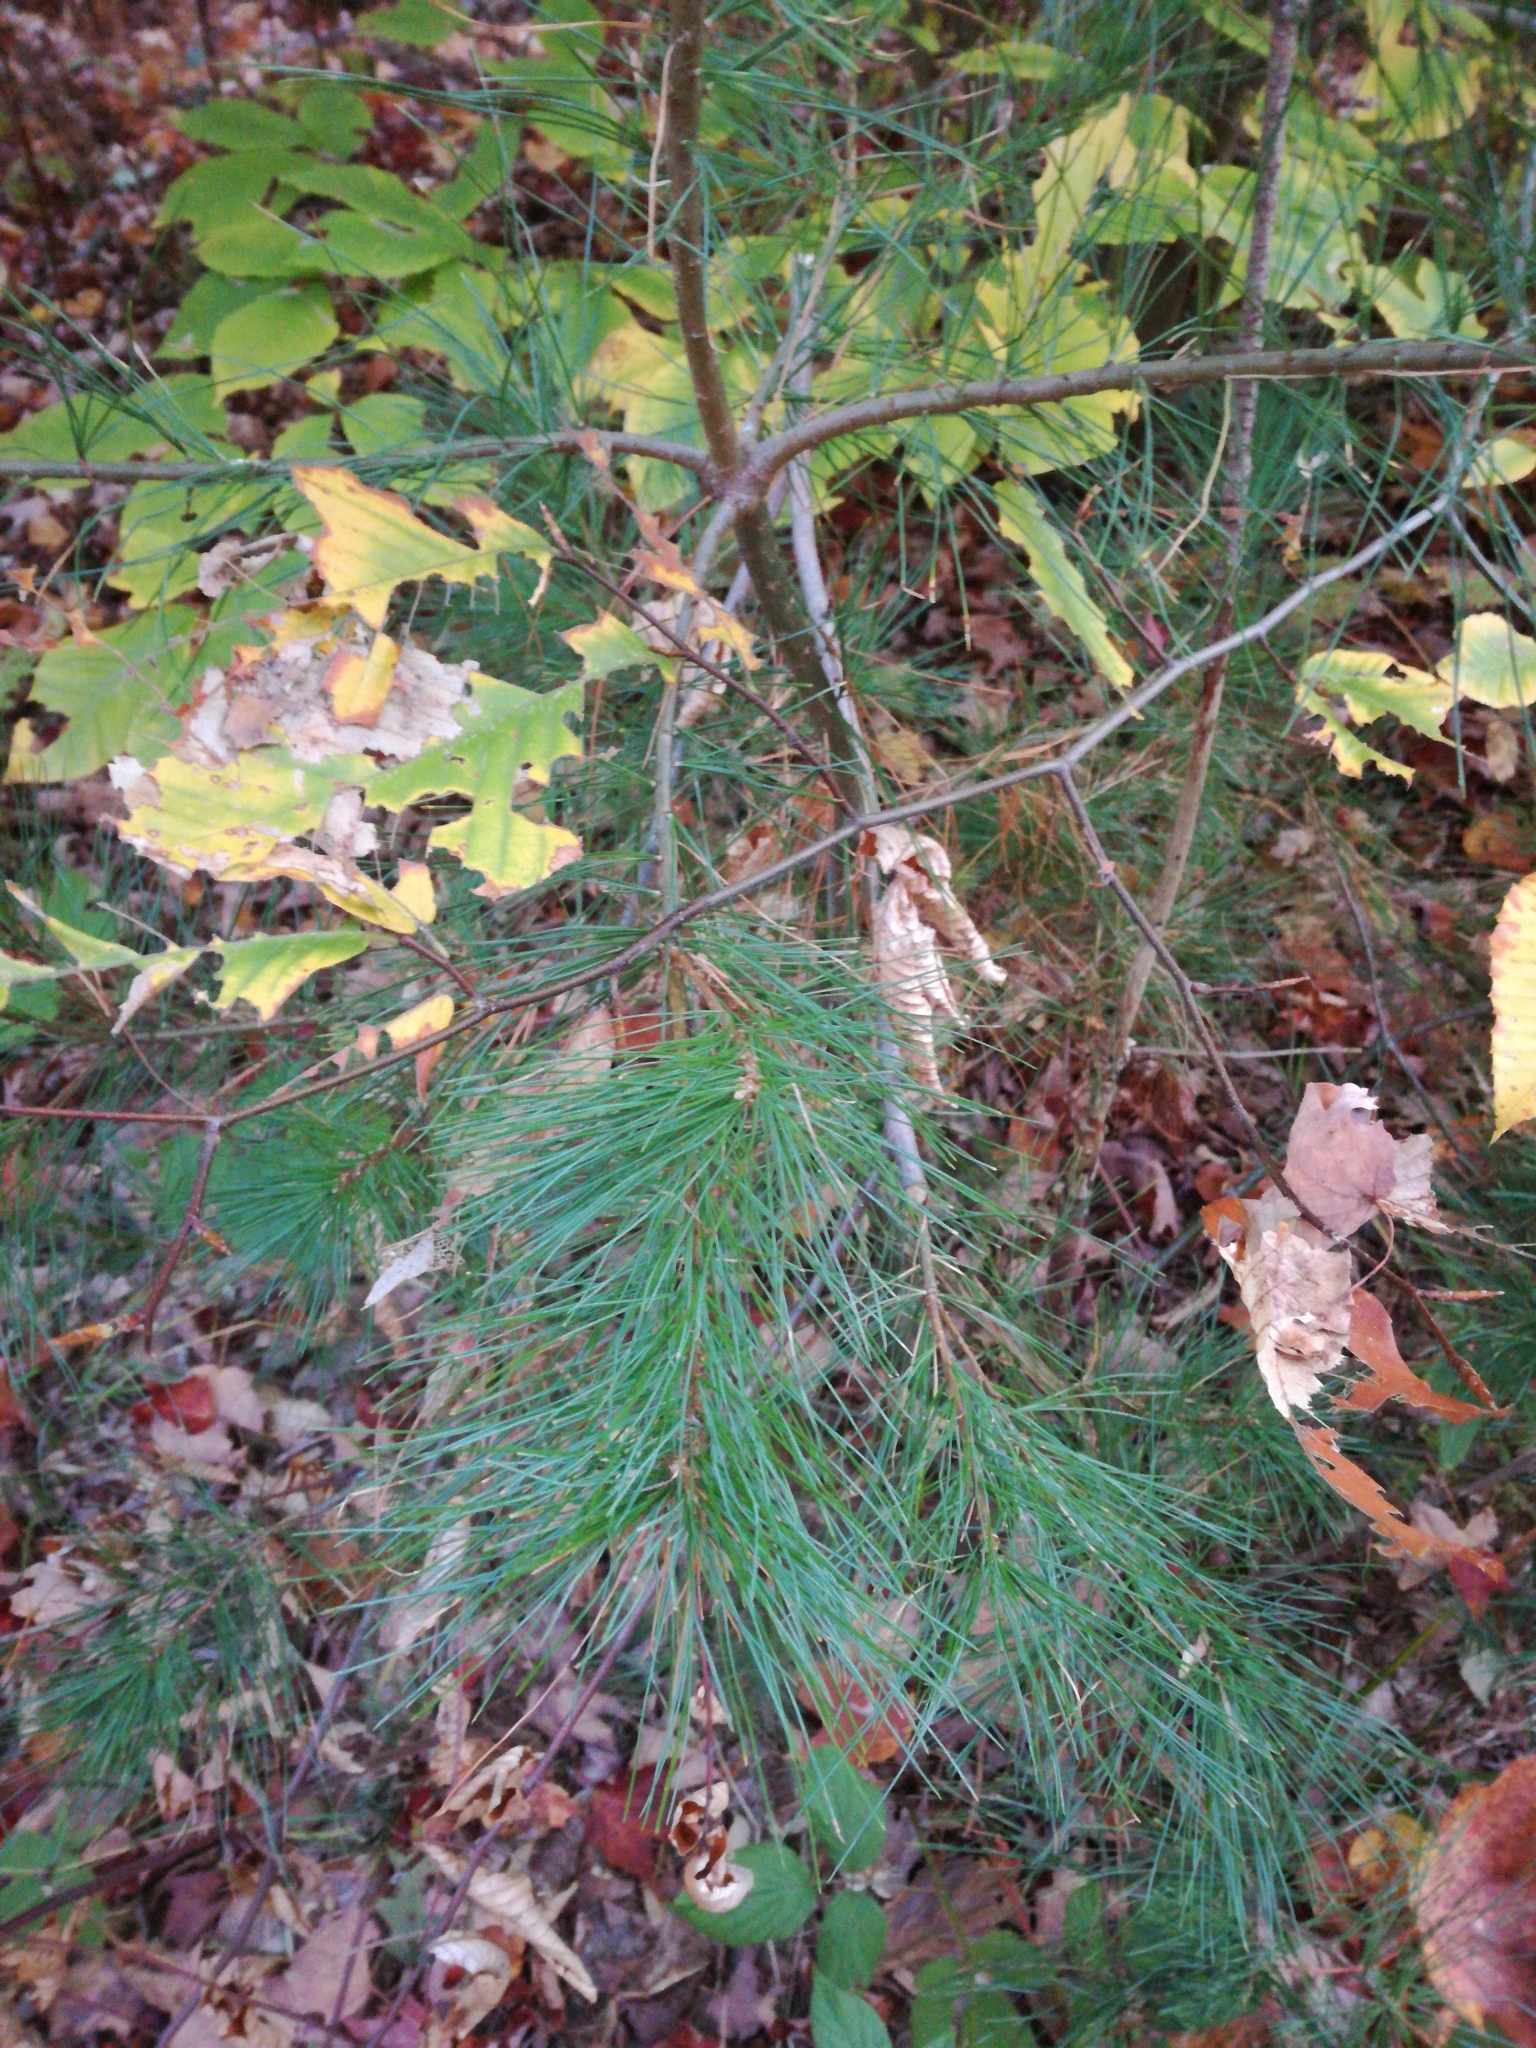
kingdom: Plantae
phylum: Tracheophyta
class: Pinopsida
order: Pinales
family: Pinaceae
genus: Pinus
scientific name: Pinus strobus
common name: Weymouth pine
